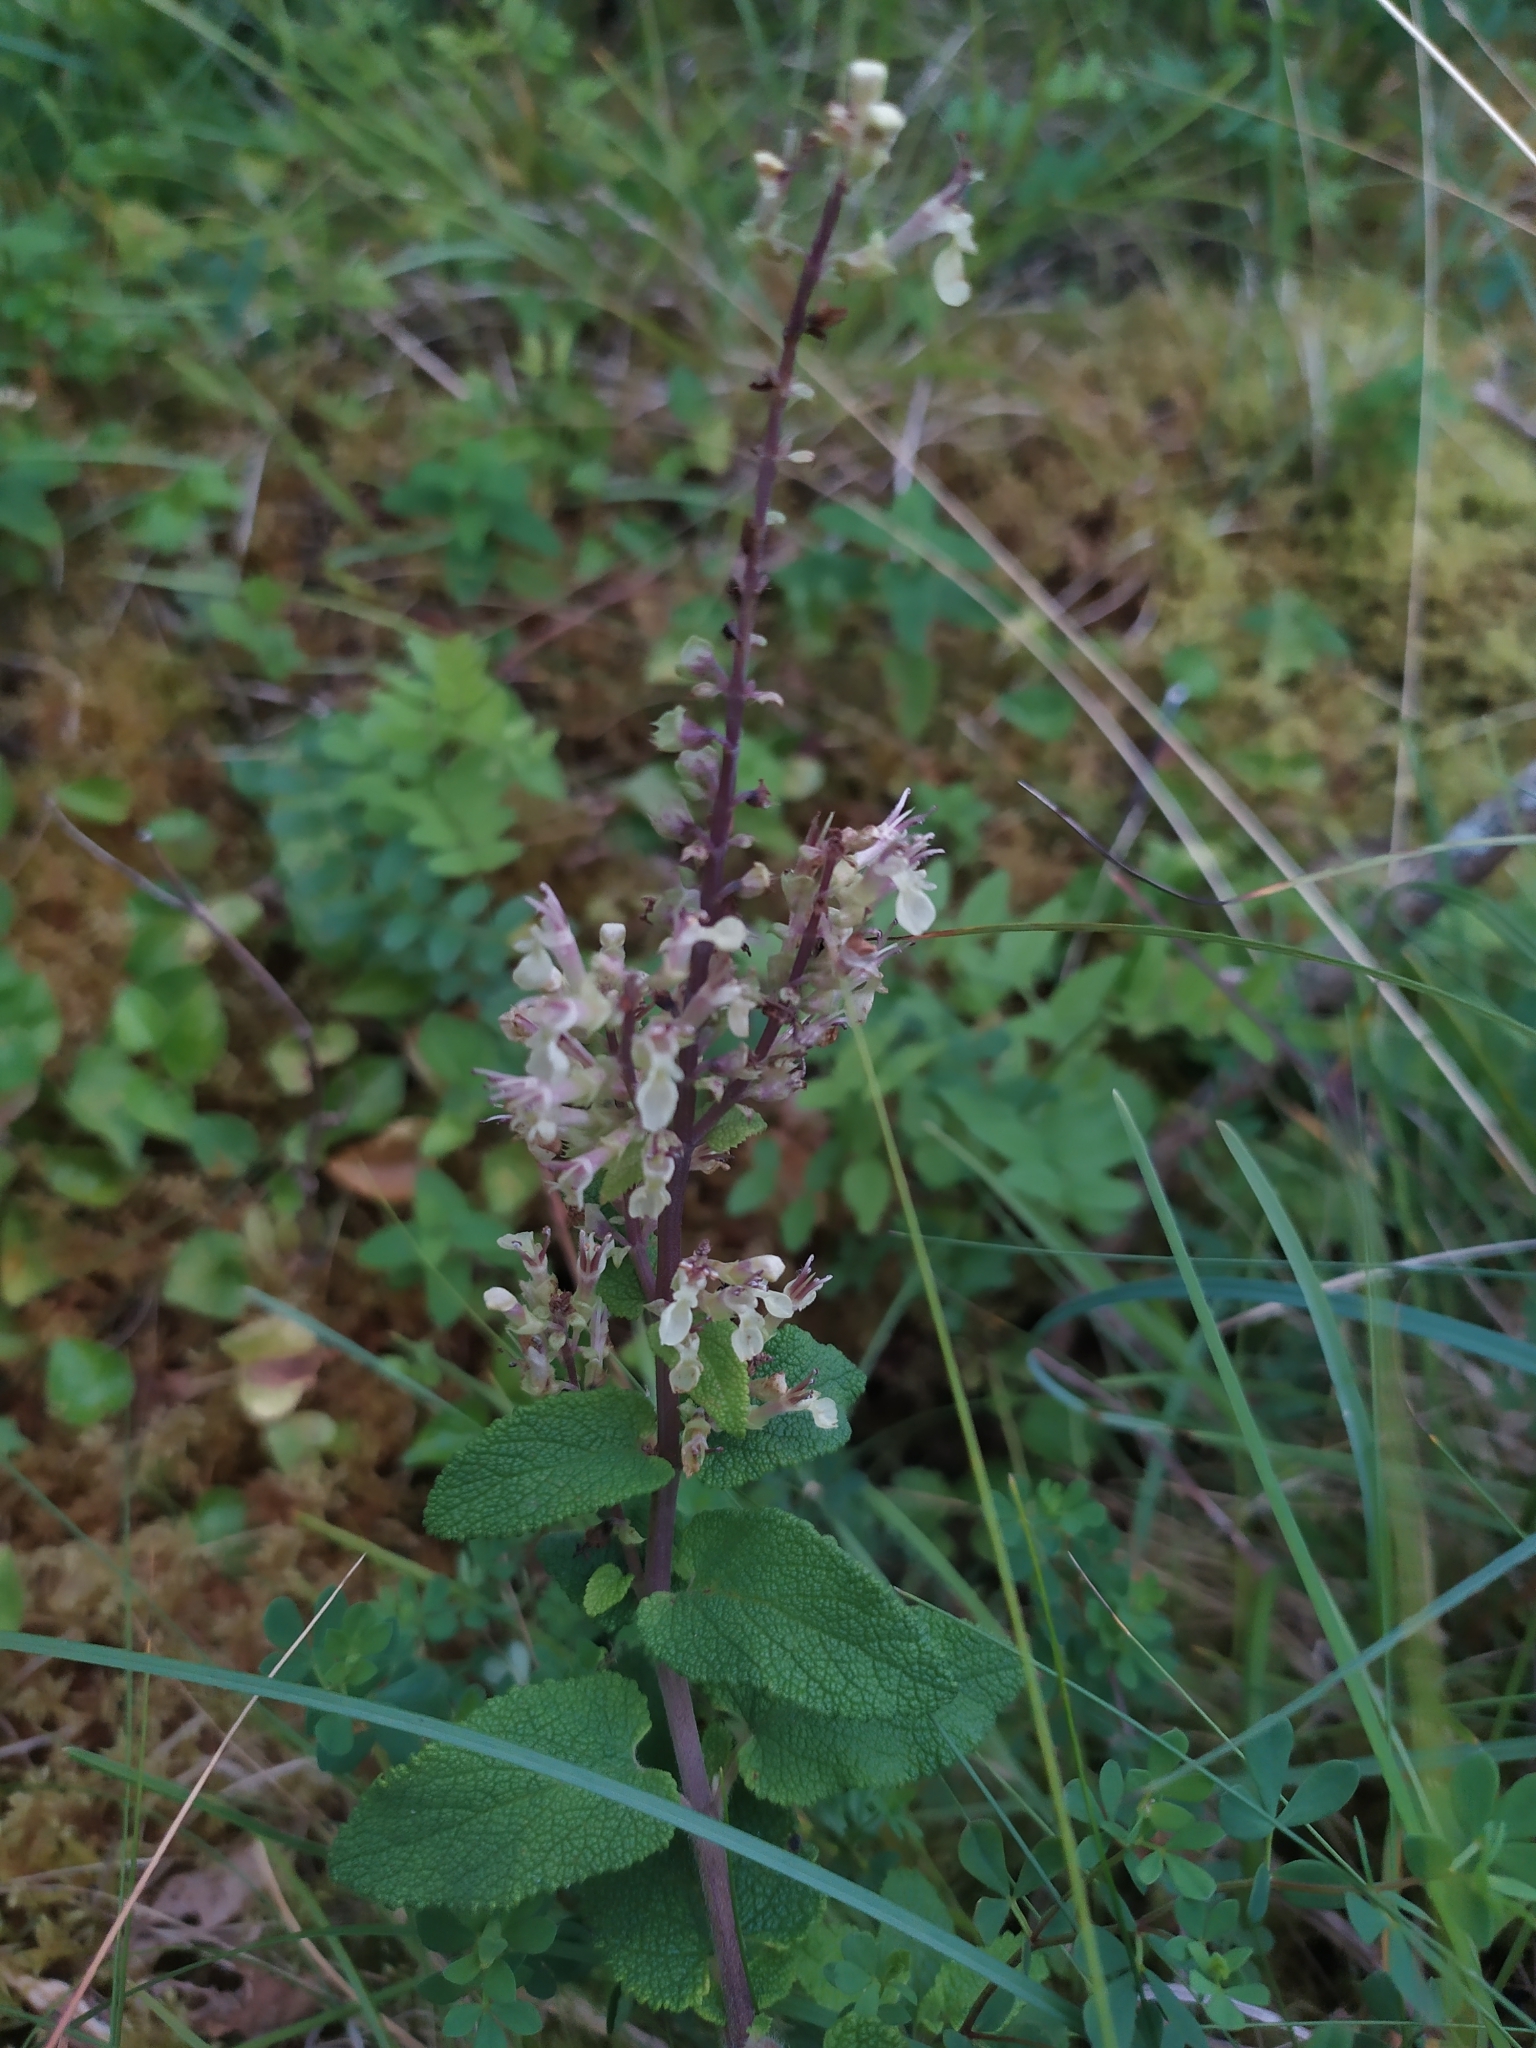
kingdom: Plantae
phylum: Tracheophyta
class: Magnoliopsida
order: Lamiales
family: Lamiaceae
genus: Teucrium
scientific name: Teucrium scorodonia
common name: Woodland germander
